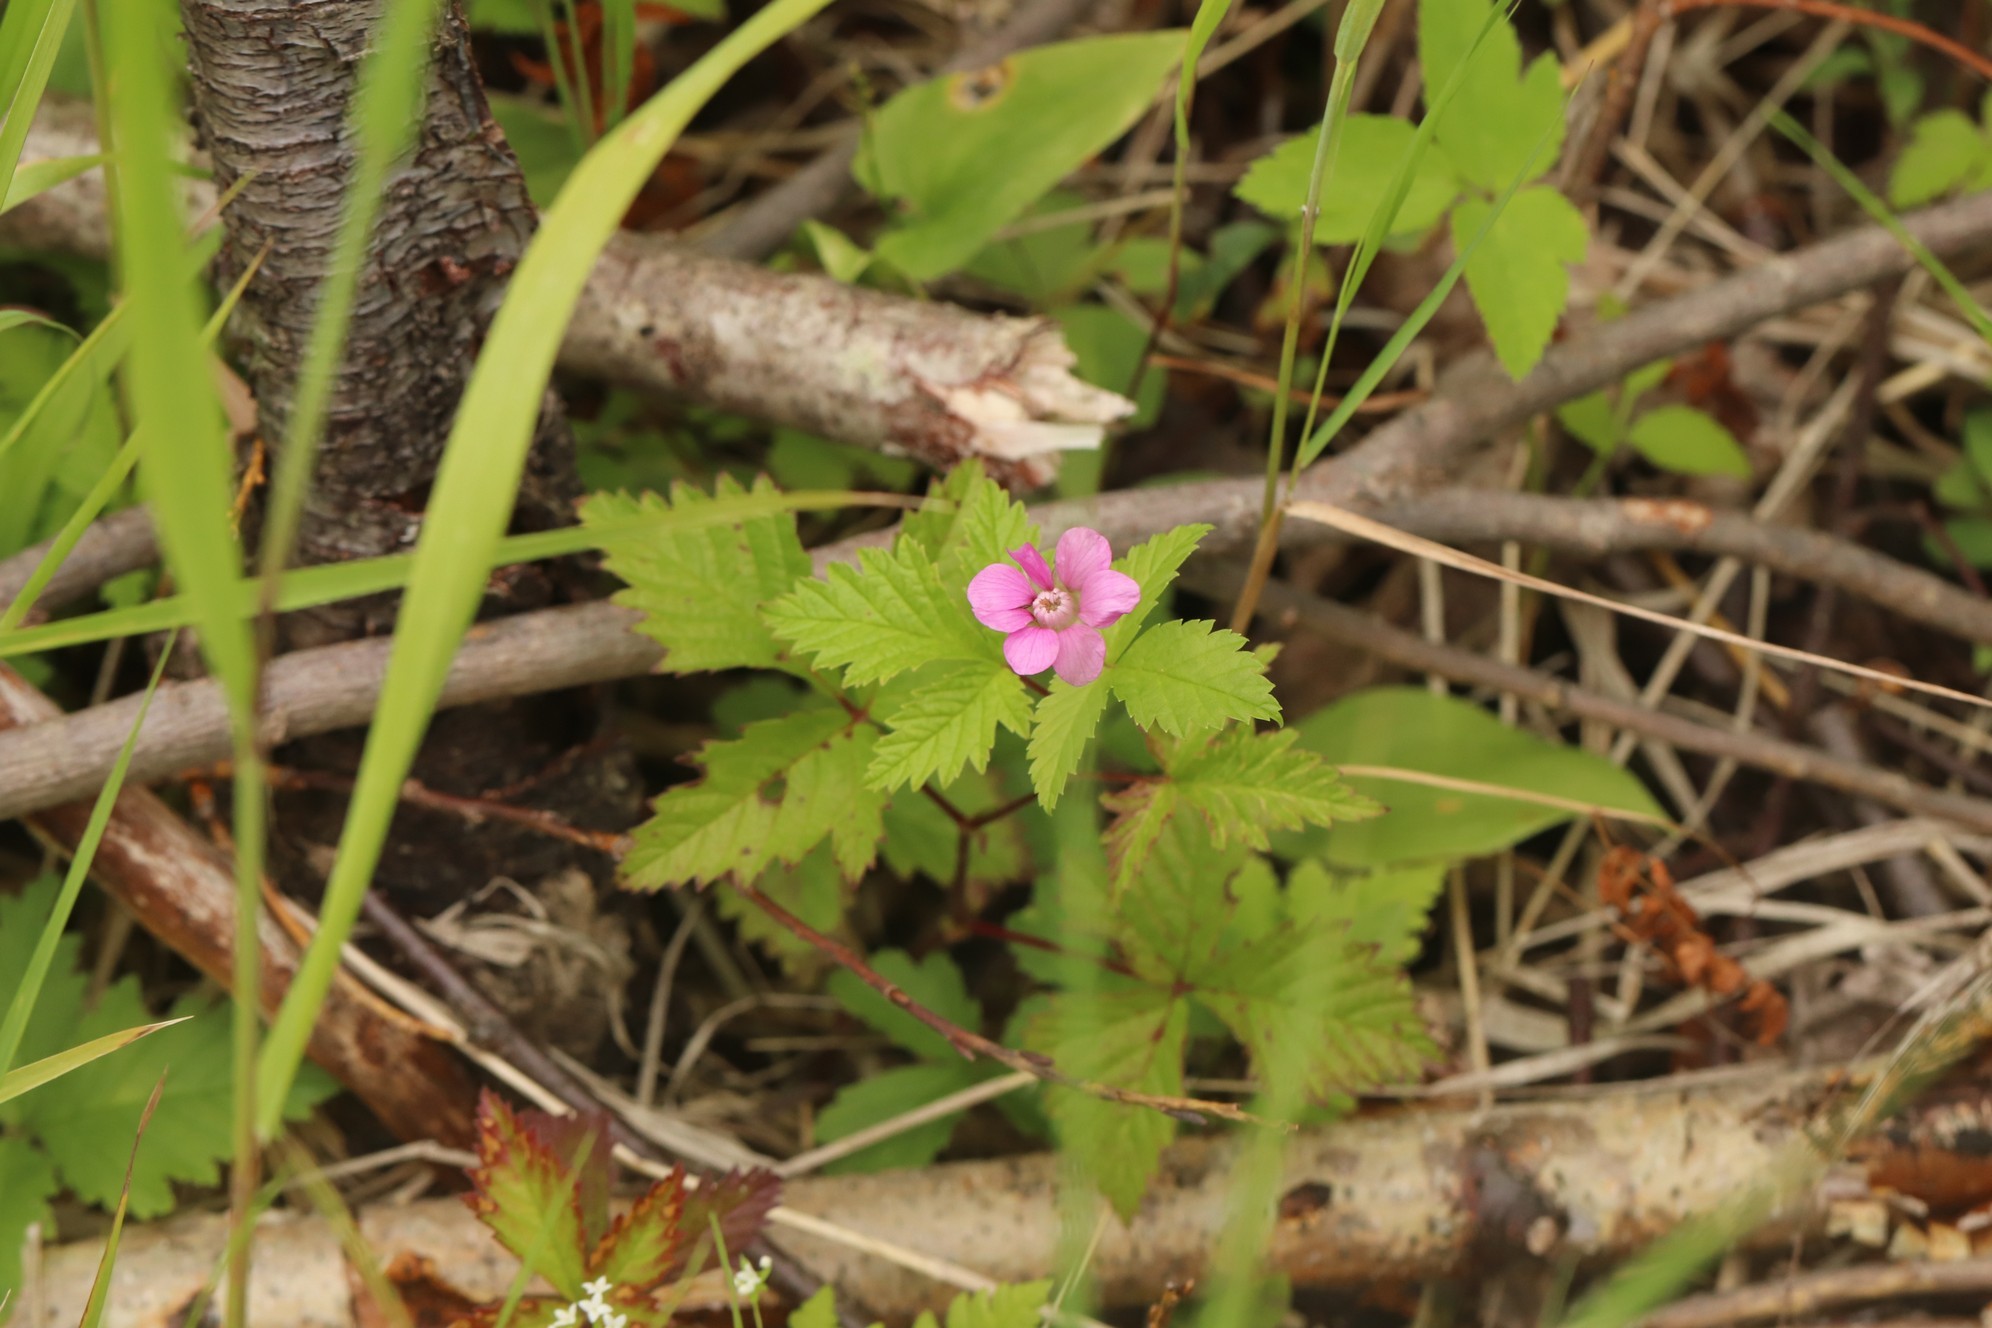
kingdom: Plantae
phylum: Tracheophyta
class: Magnoliopsida
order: Rosales
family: Rosaceae
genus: Rubus
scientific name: Rubus arcticus
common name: Arctic bramble
